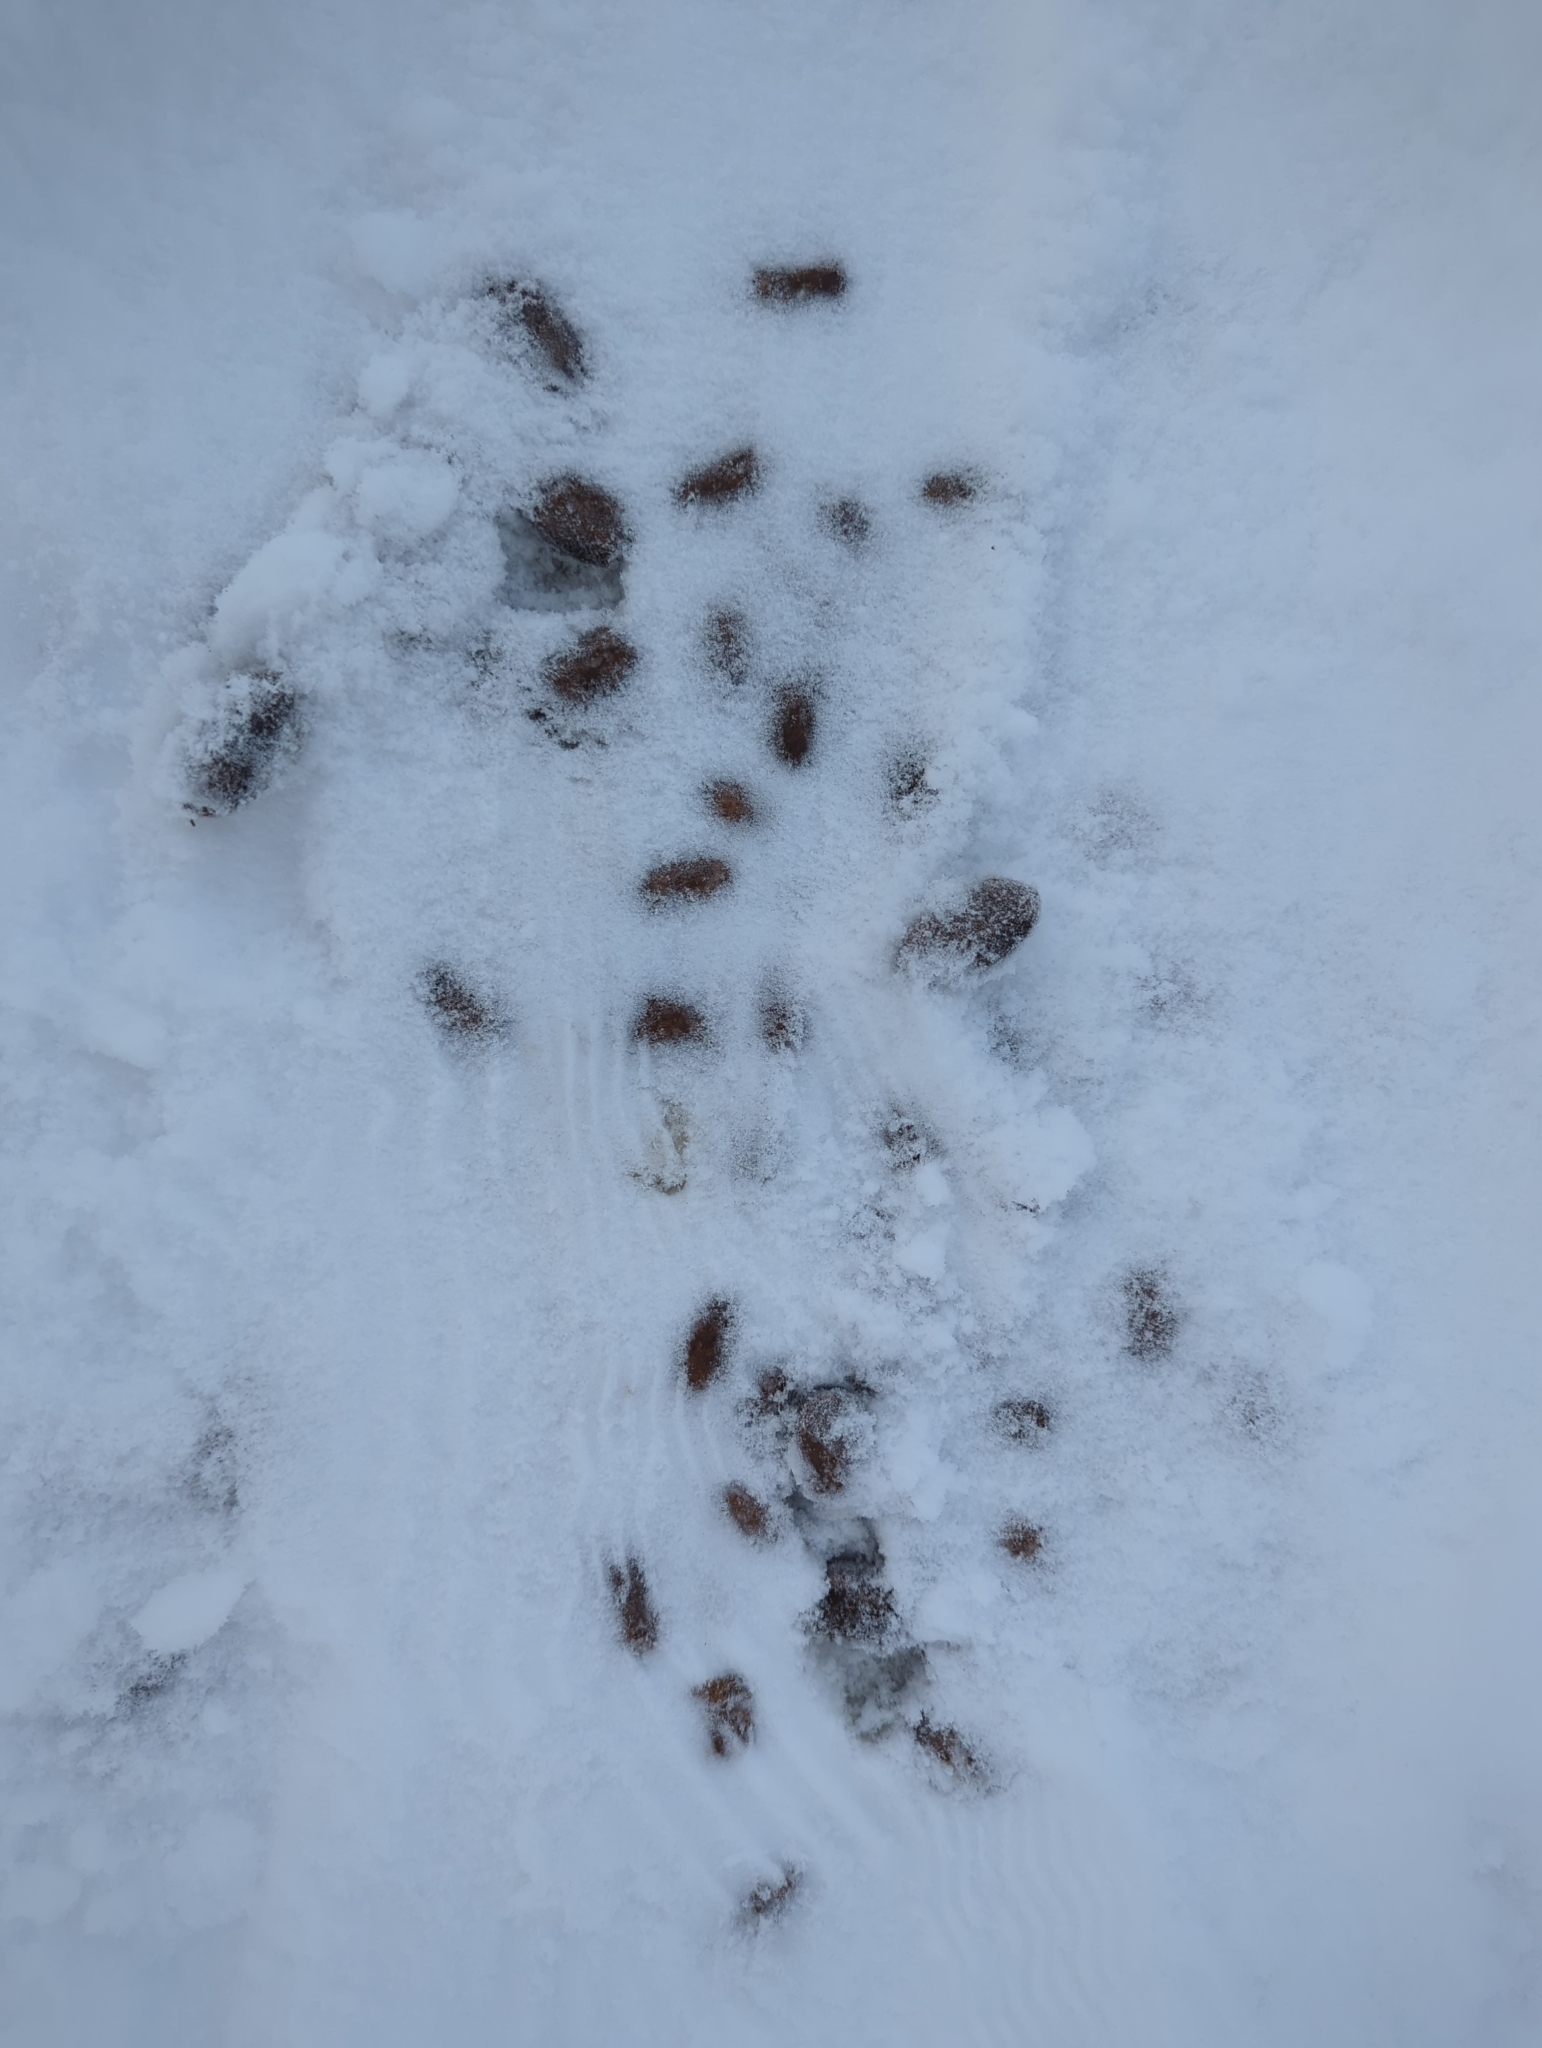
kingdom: Animalia
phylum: Chordata
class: Mammalia
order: Artiodactyla
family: Cervidae
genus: Alces
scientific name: Alces alces
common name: Moose
